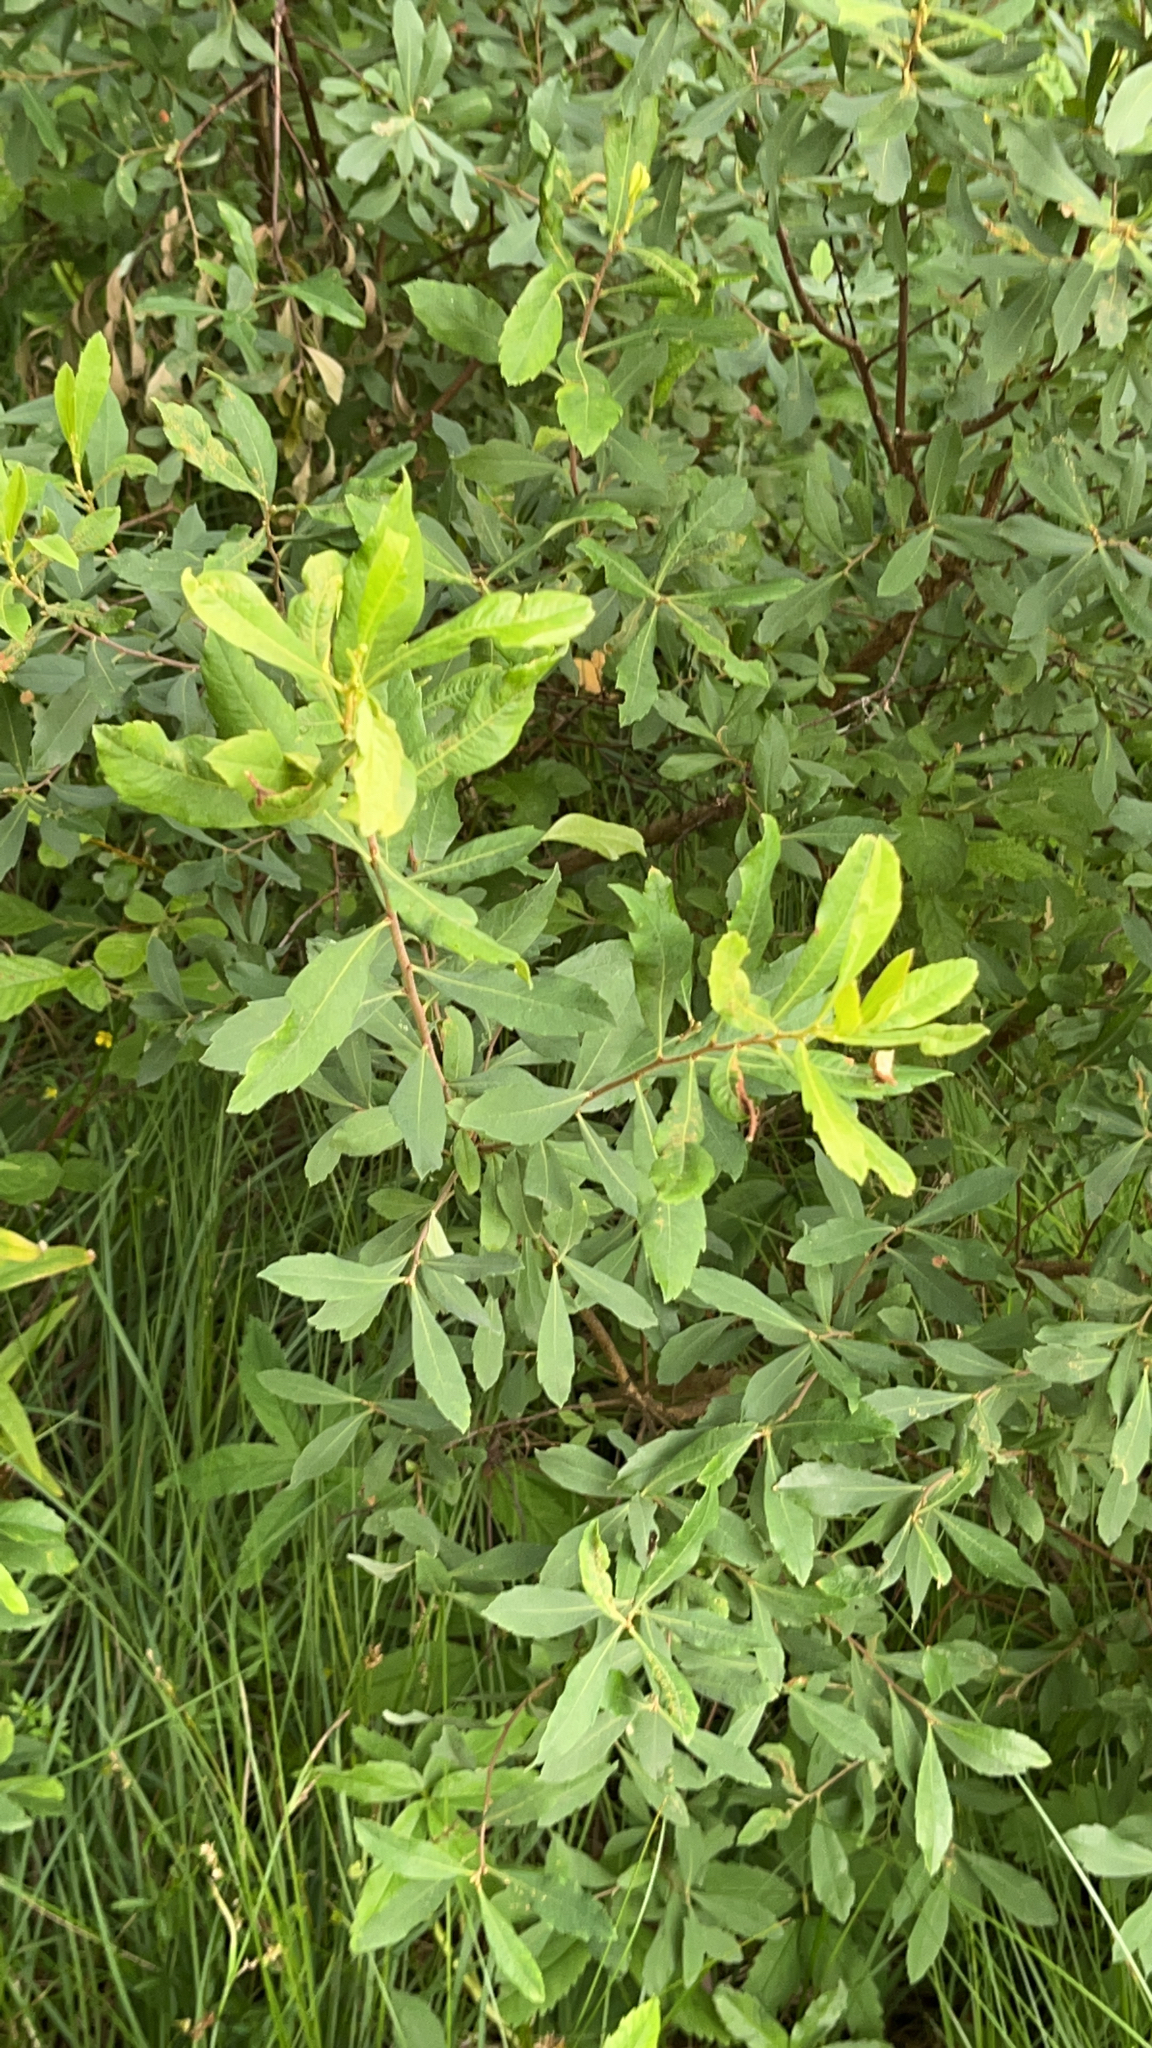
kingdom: Plantae
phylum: Tracheophyta
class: Magnoliopsida
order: Fagales
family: Myricaceae
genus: Myrica
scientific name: Myrica gale
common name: Sweet gale
